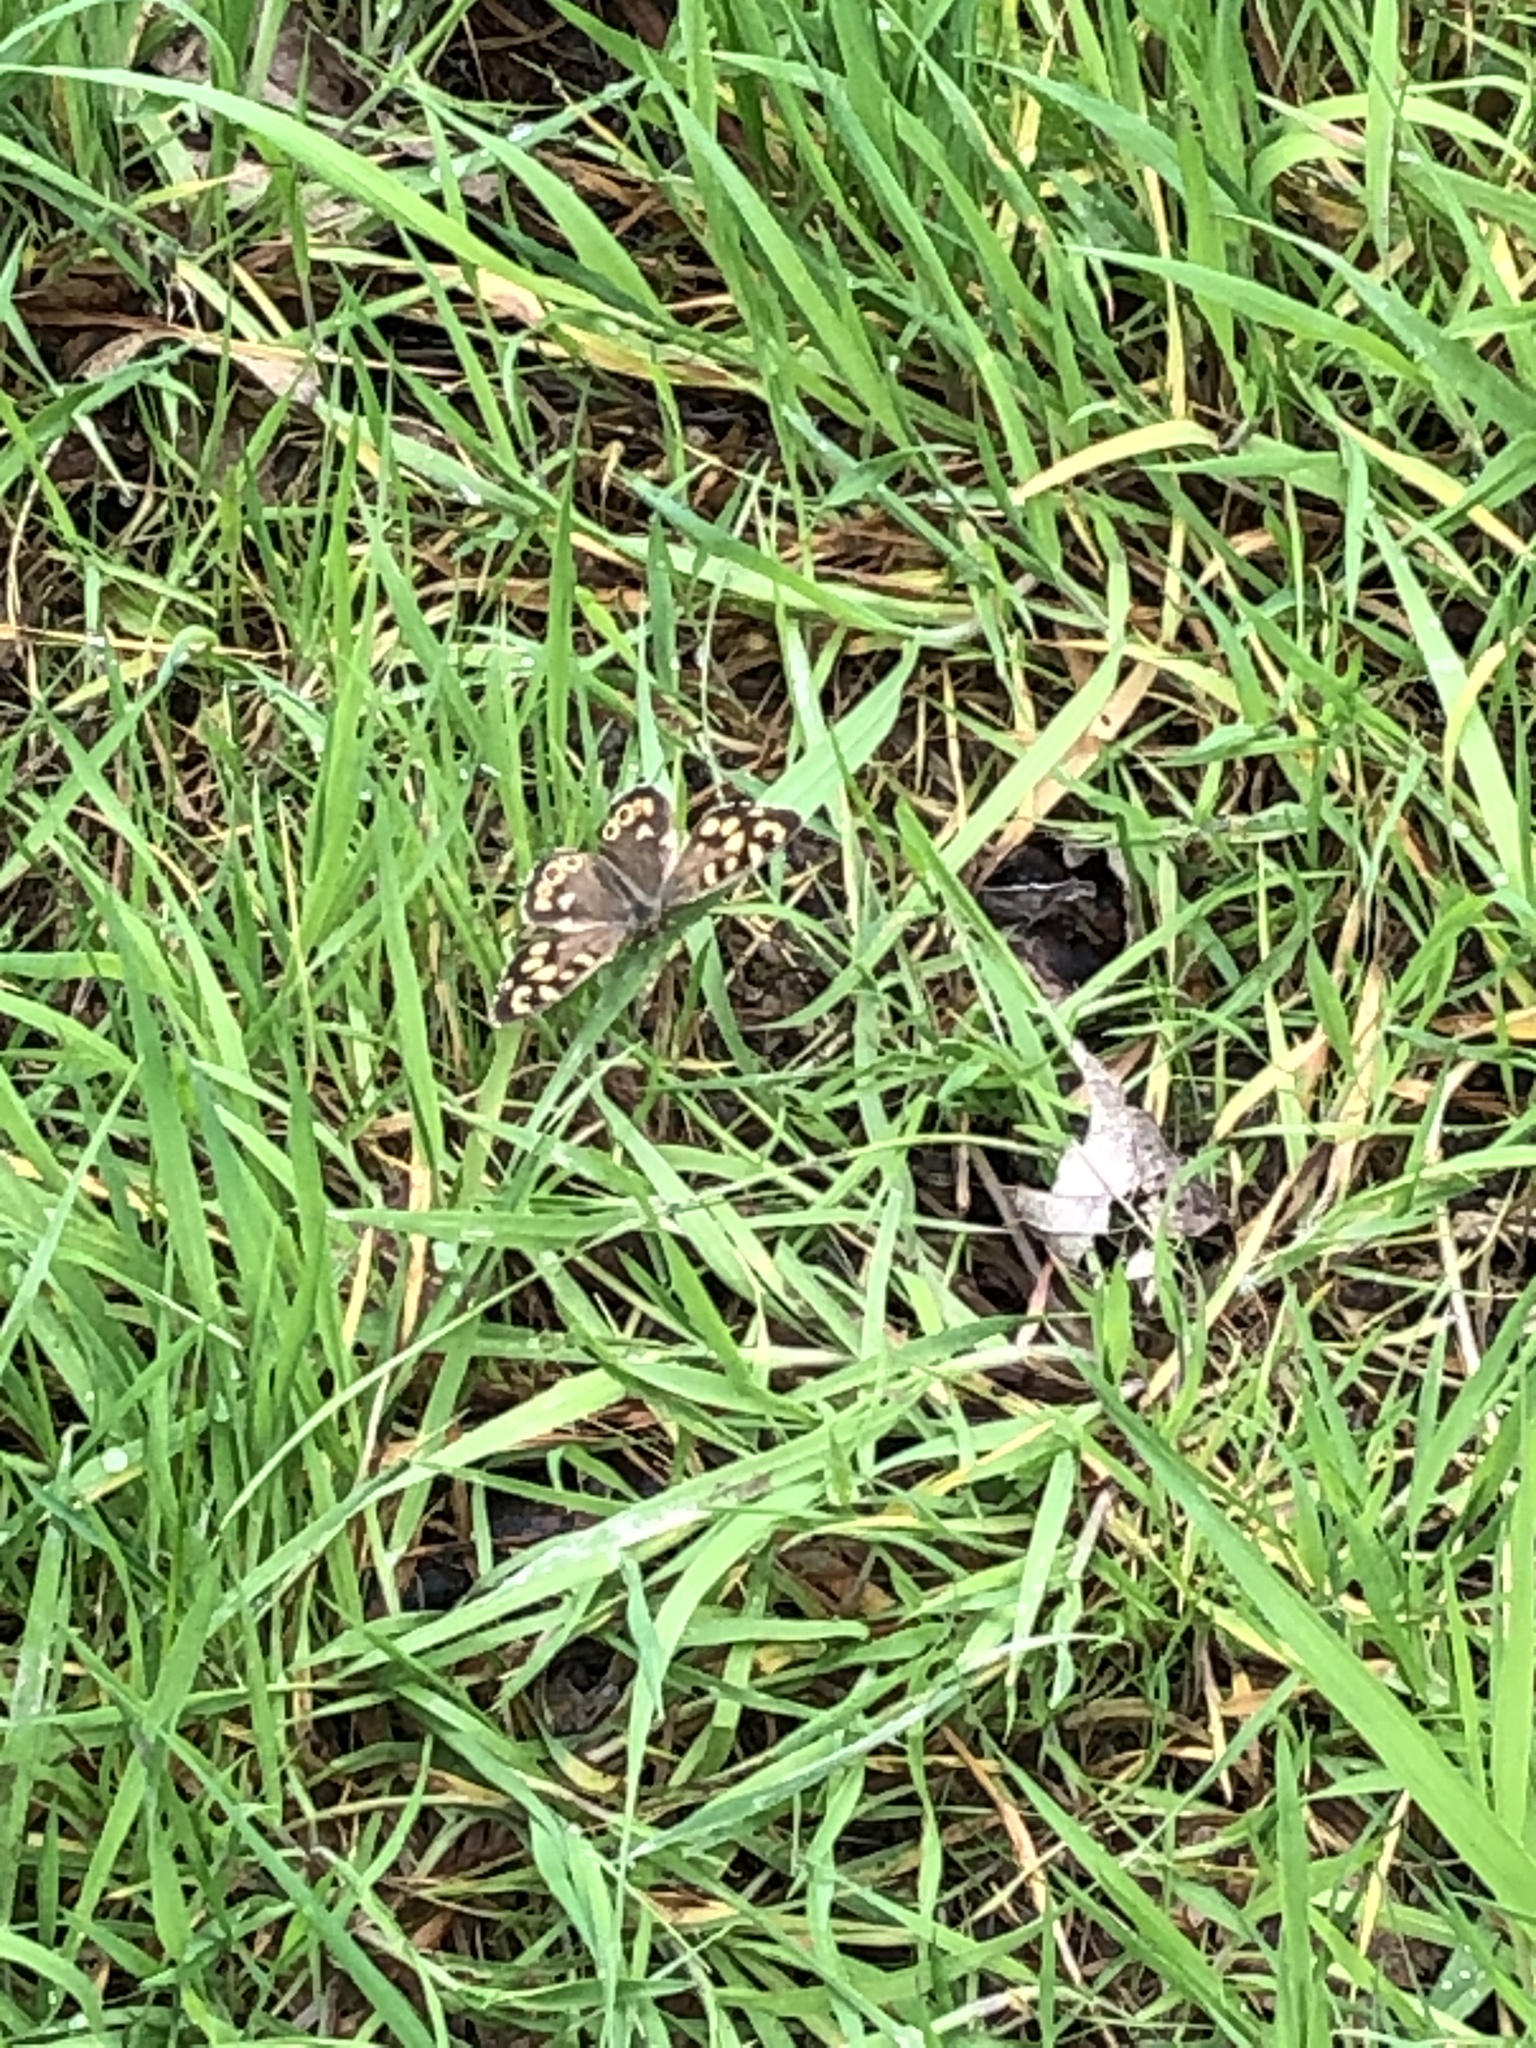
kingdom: Animalia
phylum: Arthropoda
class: Insecta
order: Lepidoptera
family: Nymphalidae
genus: Pararge
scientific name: Pararge aegeria
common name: Speckled wood
